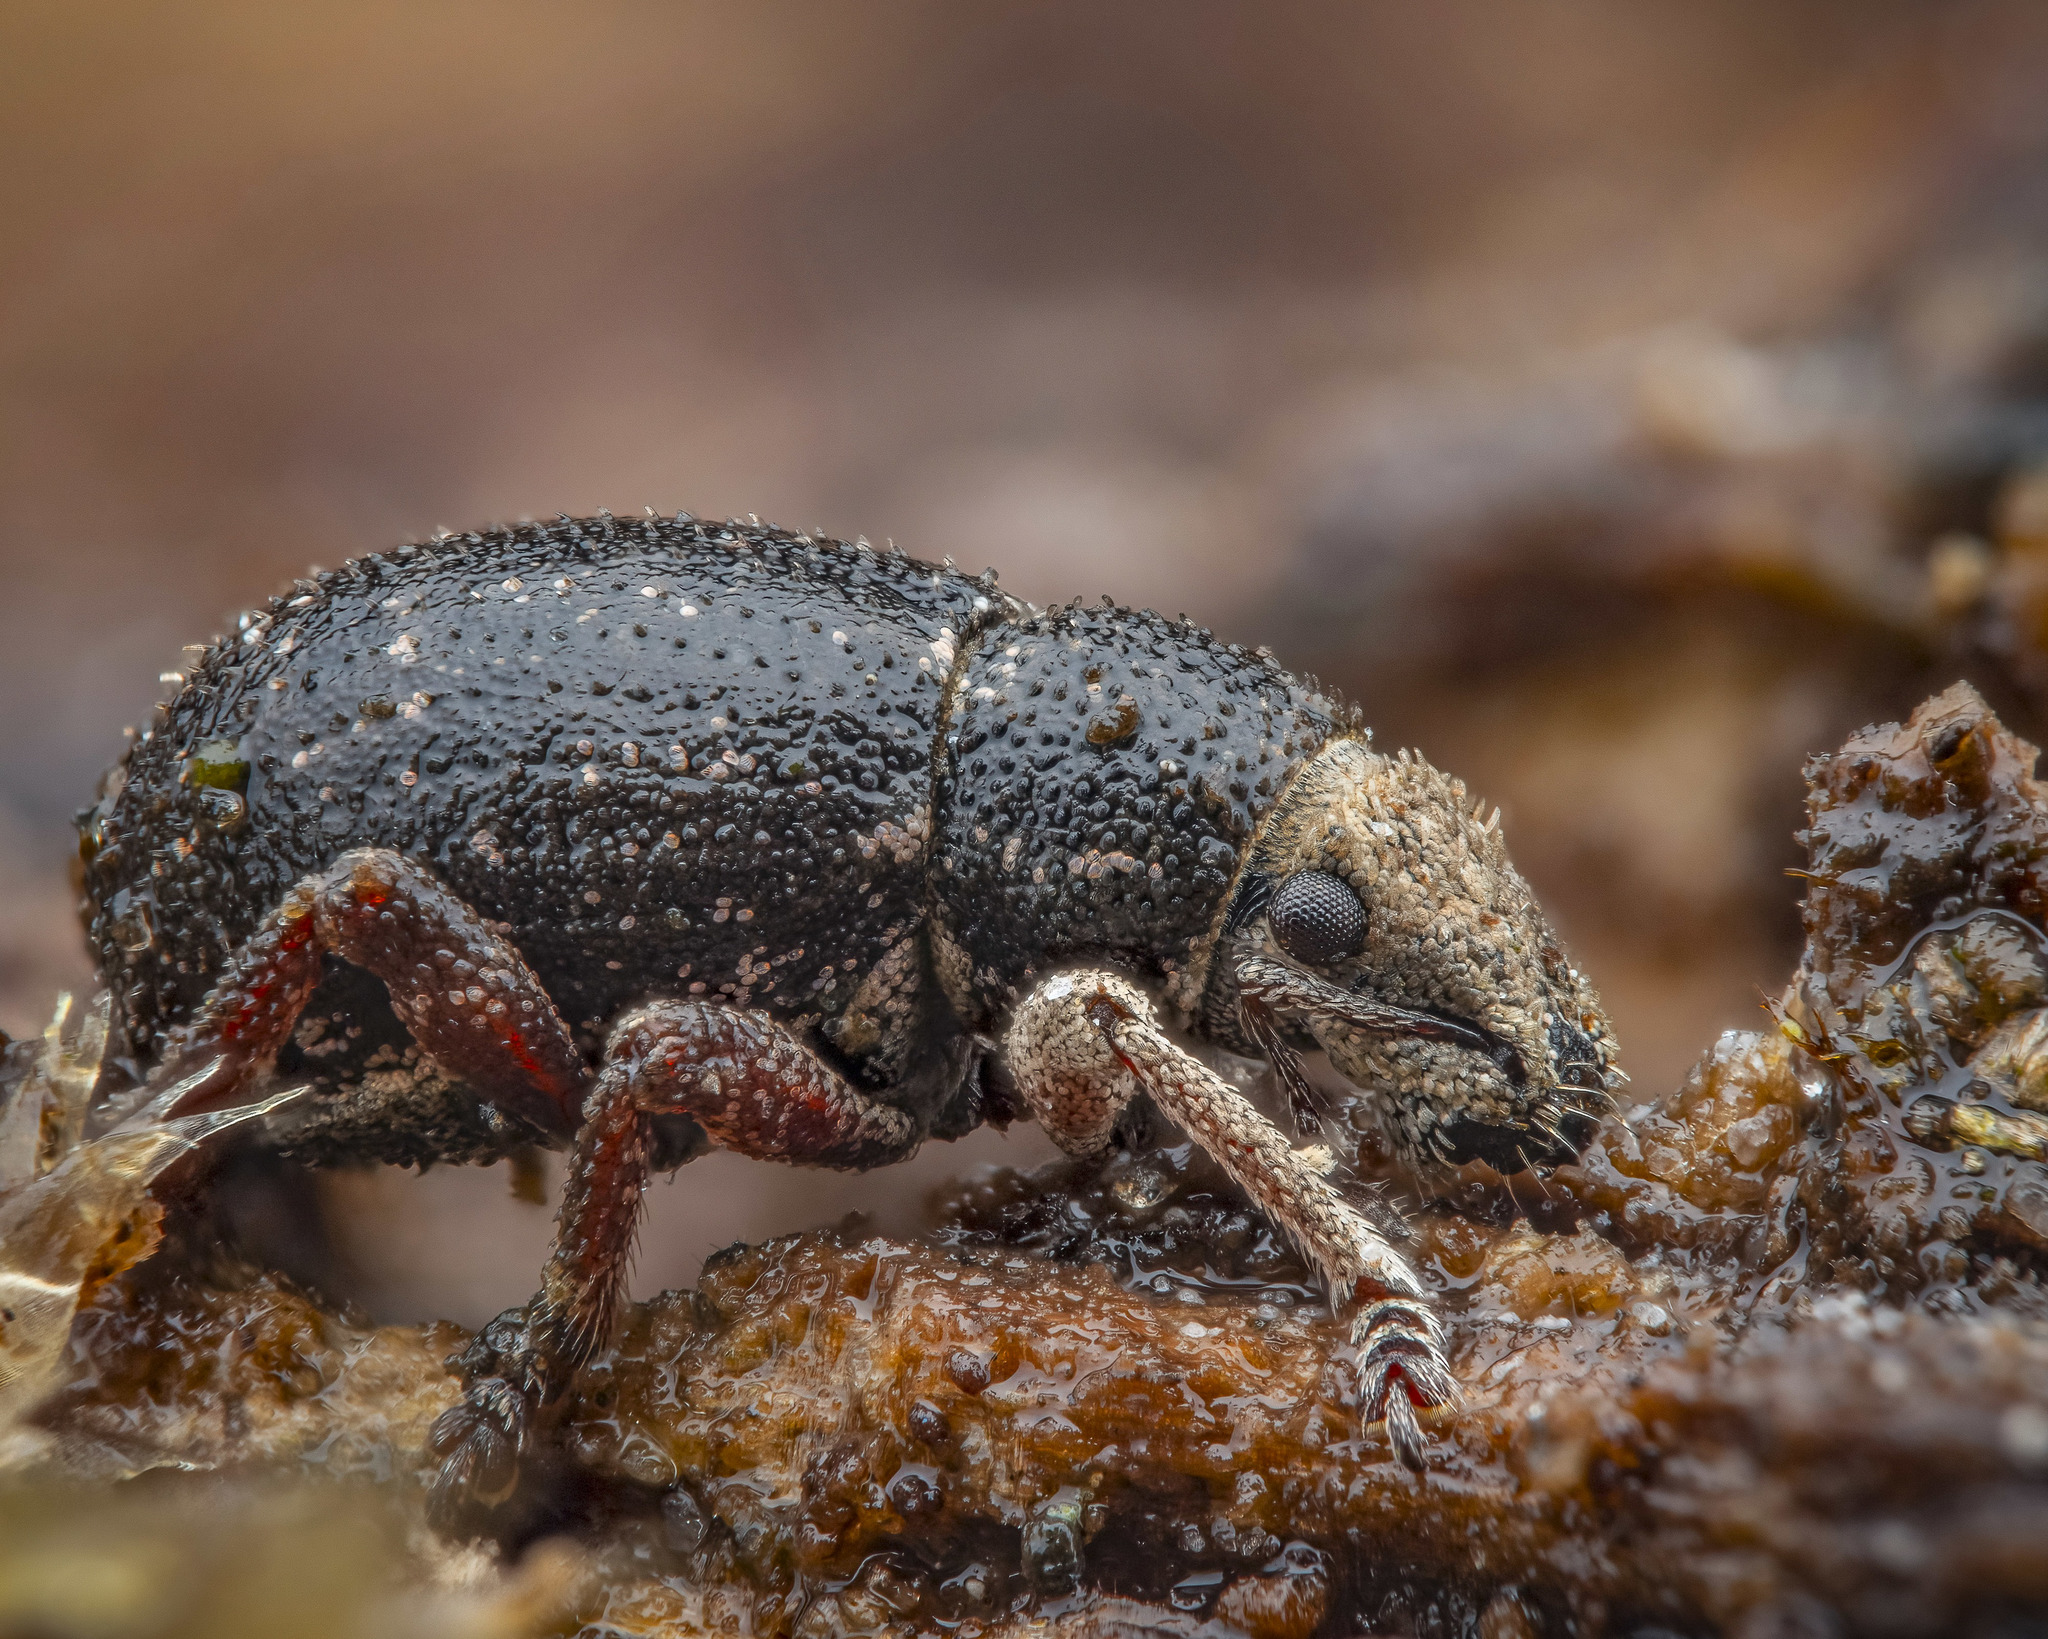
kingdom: Animalia
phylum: Arthropoda
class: Insecta
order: Coleoptera
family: Curculionidae
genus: Strophosoma
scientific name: Strophosoma capitatum
